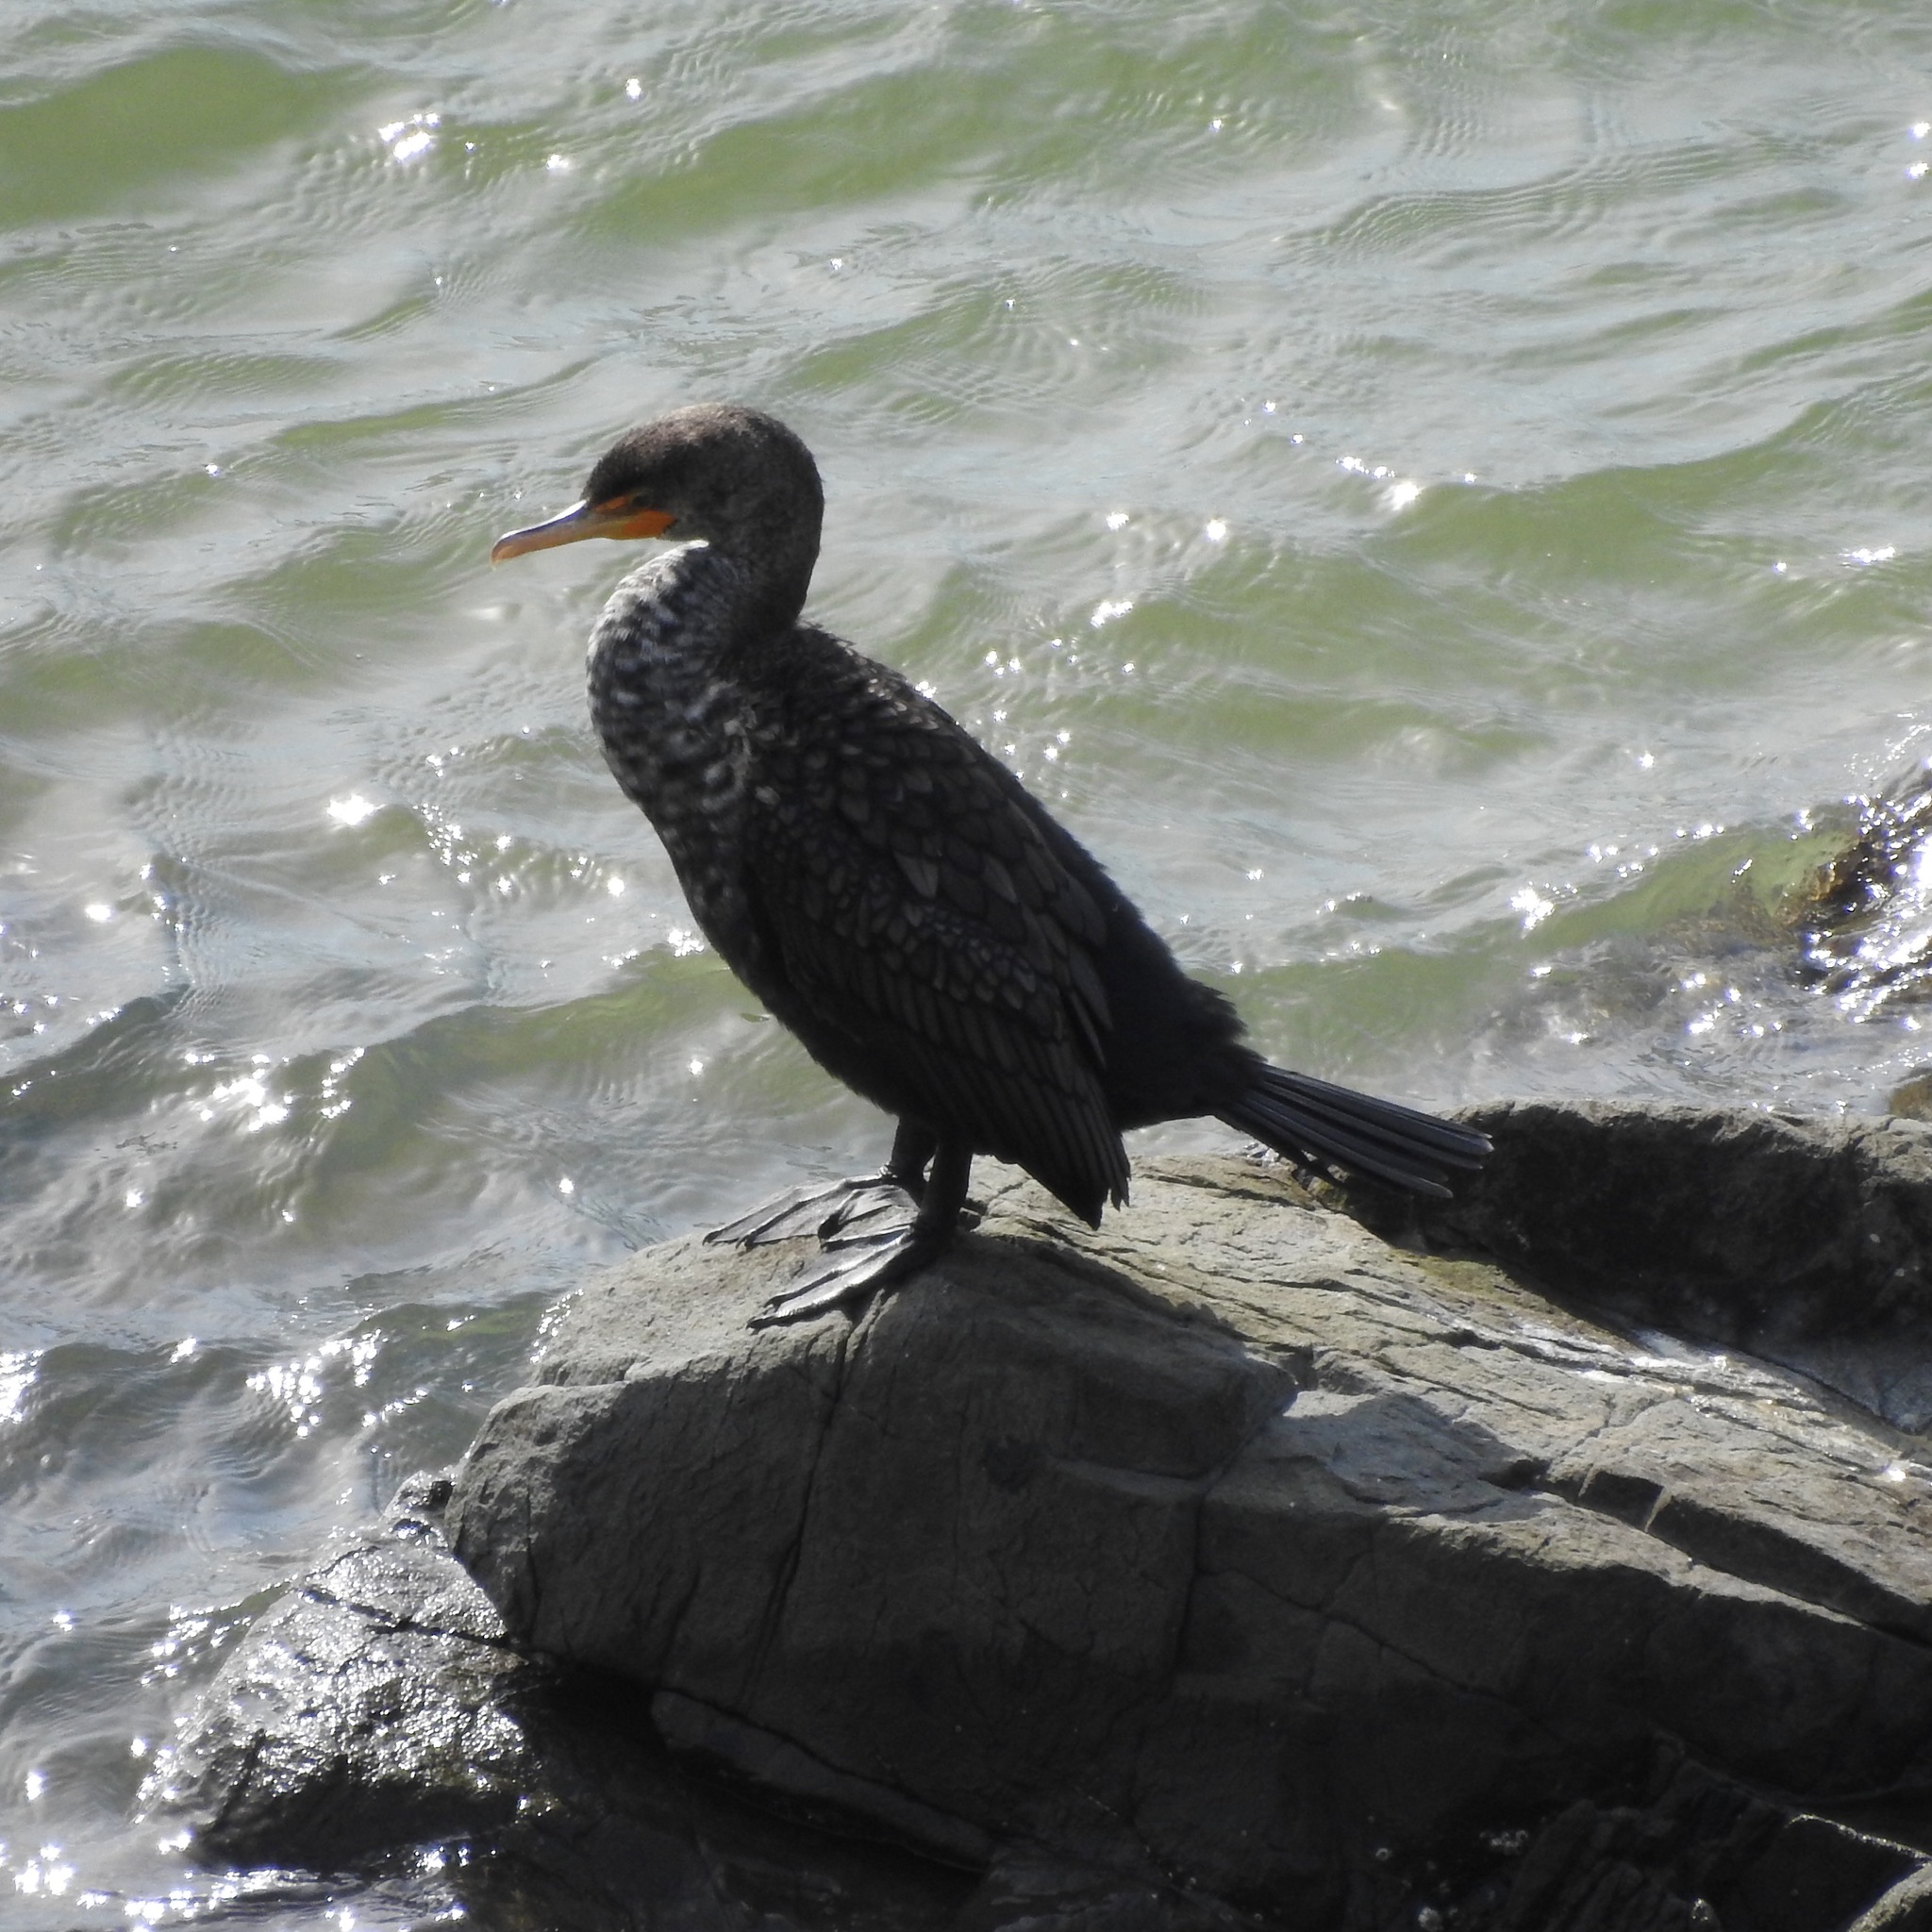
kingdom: Animalia
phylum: Chordata
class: Aves
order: Suliformes
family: Phalacrocoracidae
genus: Phalacrocorax
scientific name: Phalacrocorax auritus
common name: Double-crested cormorant
